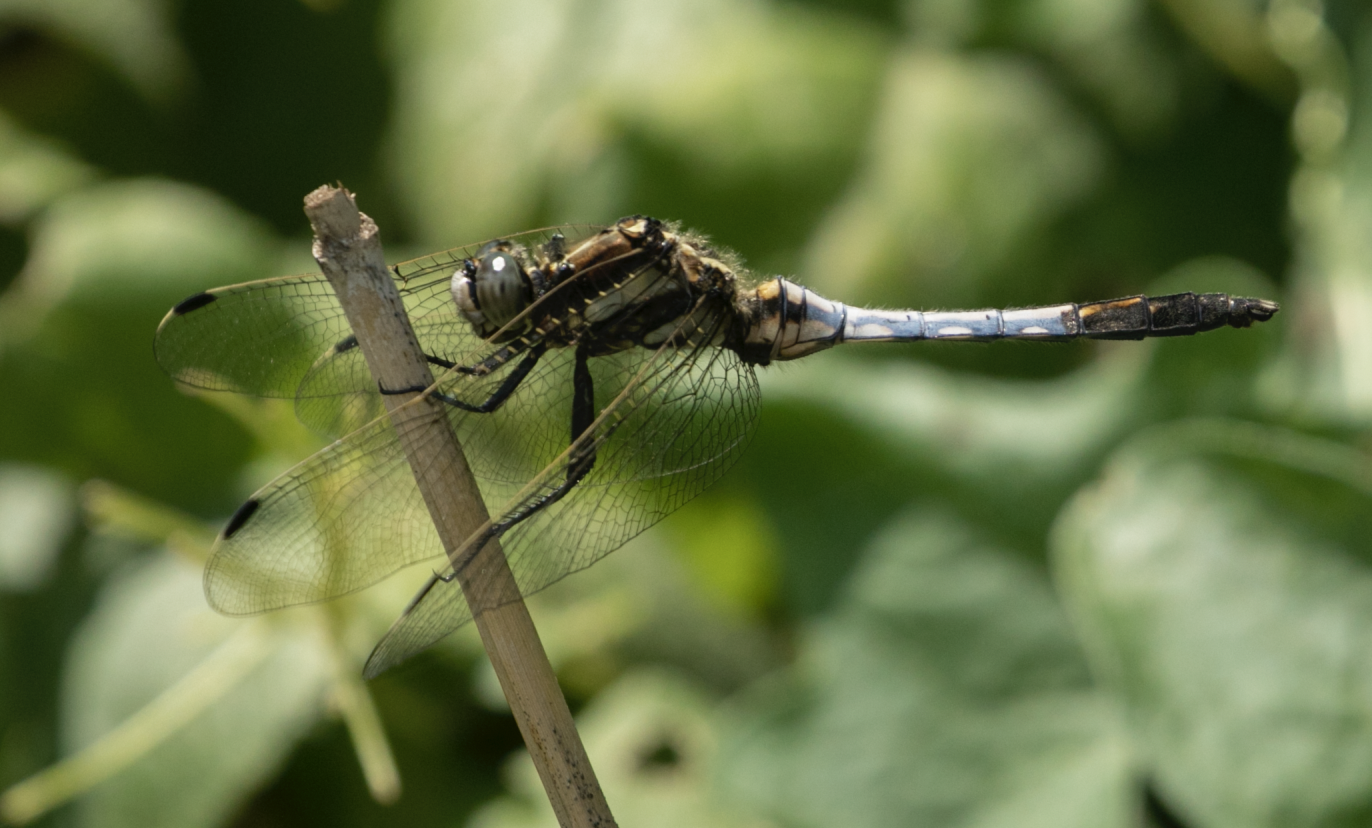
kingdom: Animalia
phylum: Arthropoda
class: Insecta
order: Odonata
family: Libellulidae
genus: Orthetrum
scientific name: Orthetrum albistylum
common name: White-tailed skimmer
